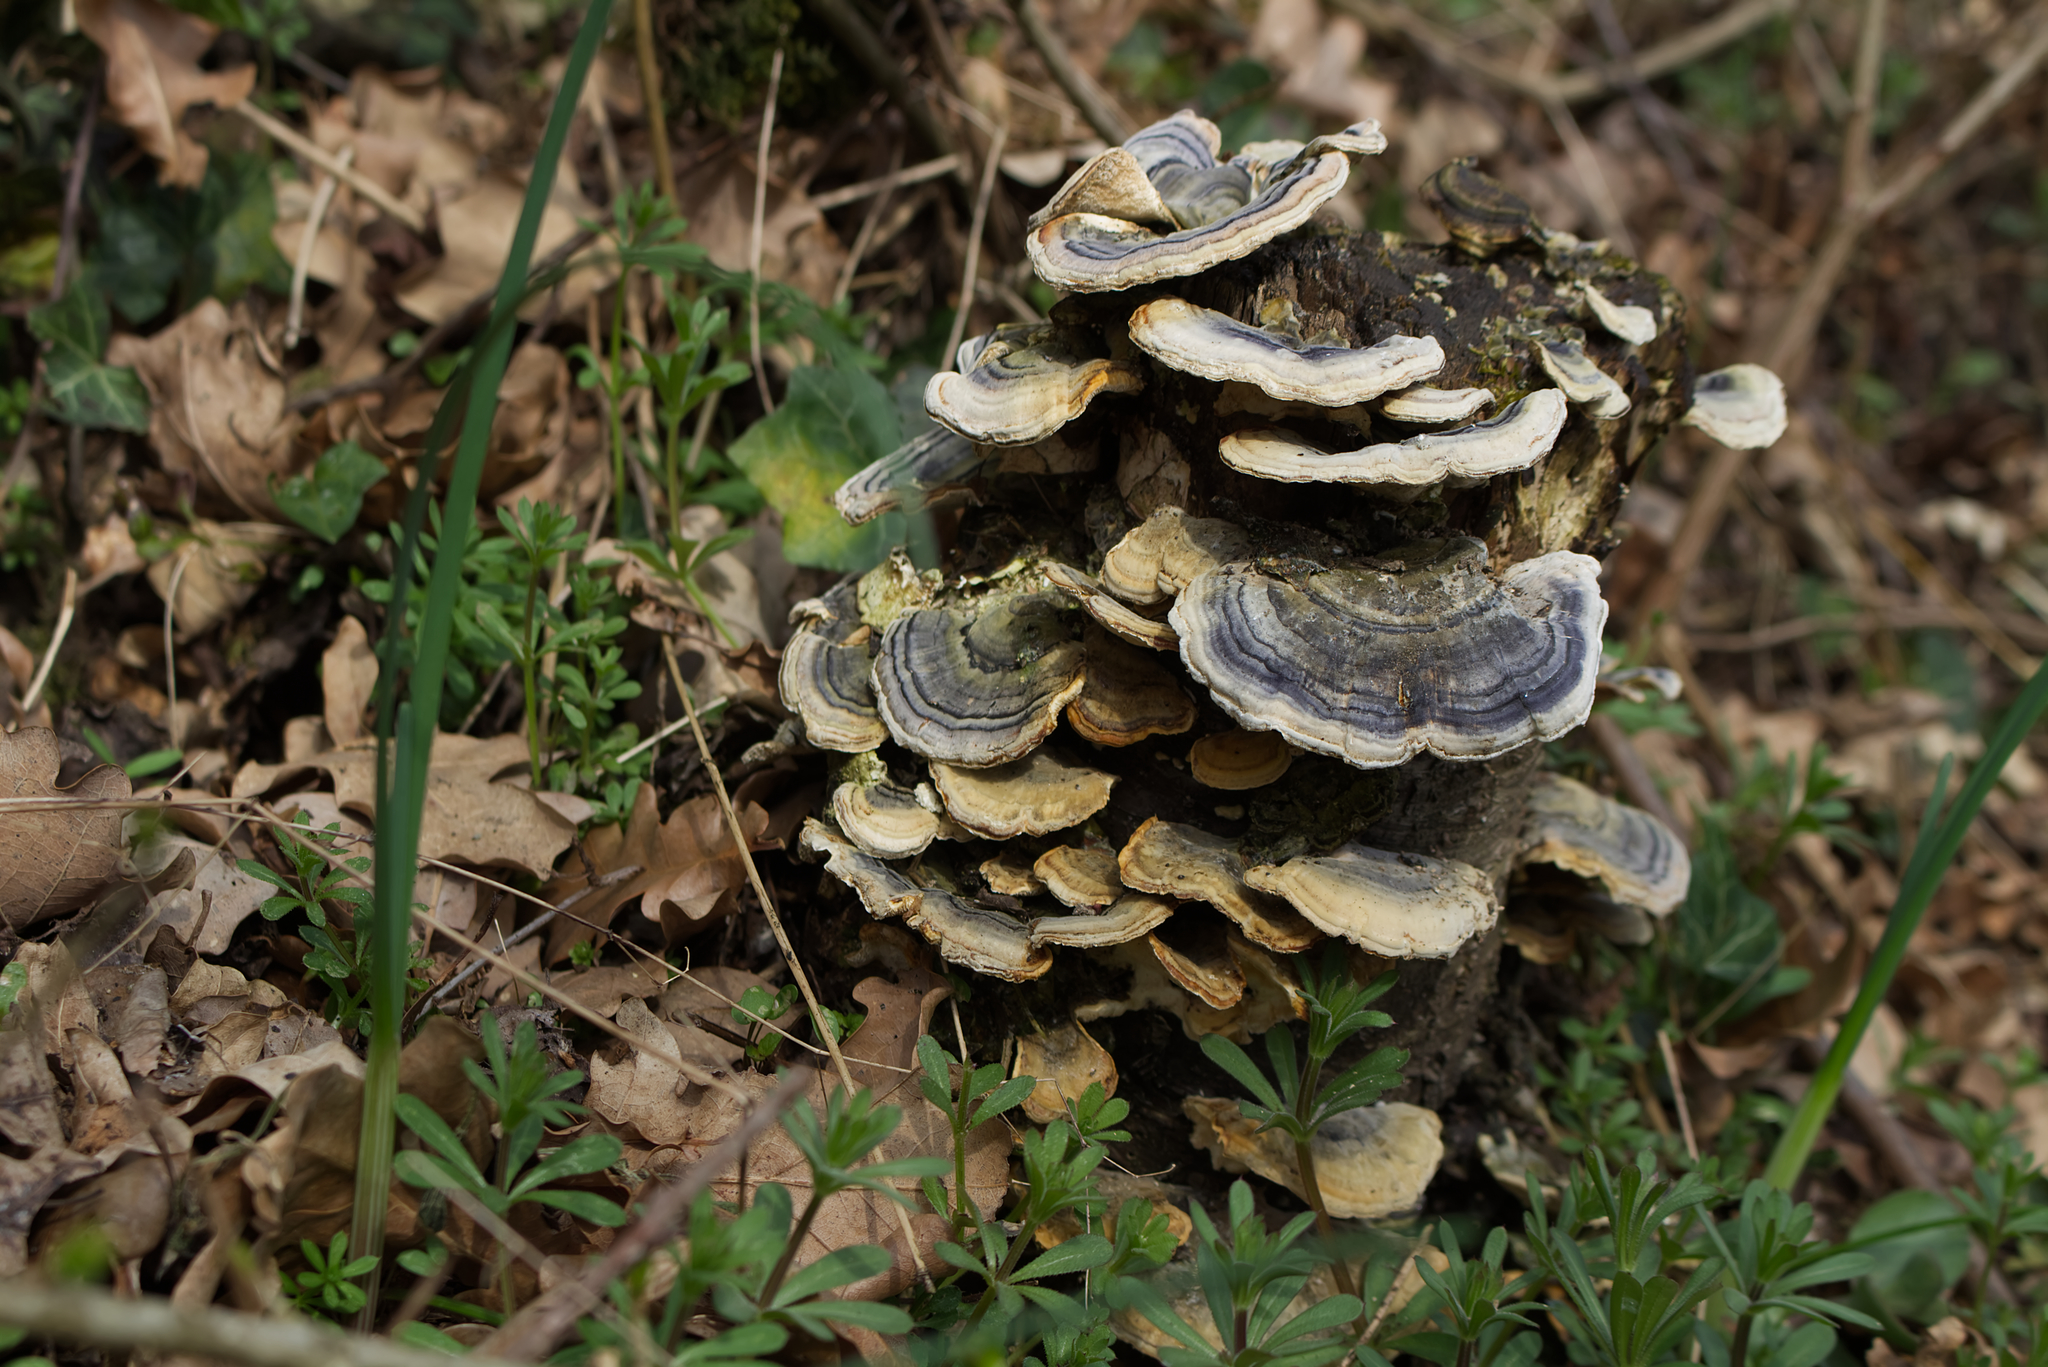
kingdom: Fungi
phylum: Basidiomycota
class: Agaricomycetes
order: Polyporales
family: Polyporaceae
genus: Trametes
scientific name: Trametes versicolor
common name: Turkeytail
